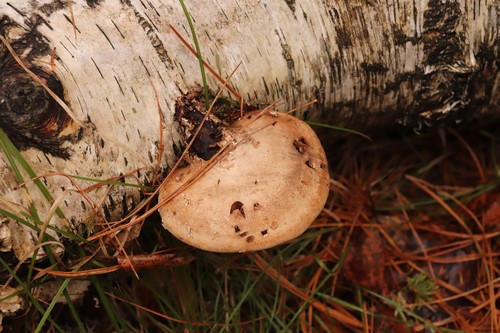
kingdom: Fungi
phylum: Basidiomycota
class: Agaricomycetes
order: Polyporales
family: Fomitopsidaceae
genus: Fomitopsis
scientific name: Fomitopsis betulina
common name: Birch polypore
